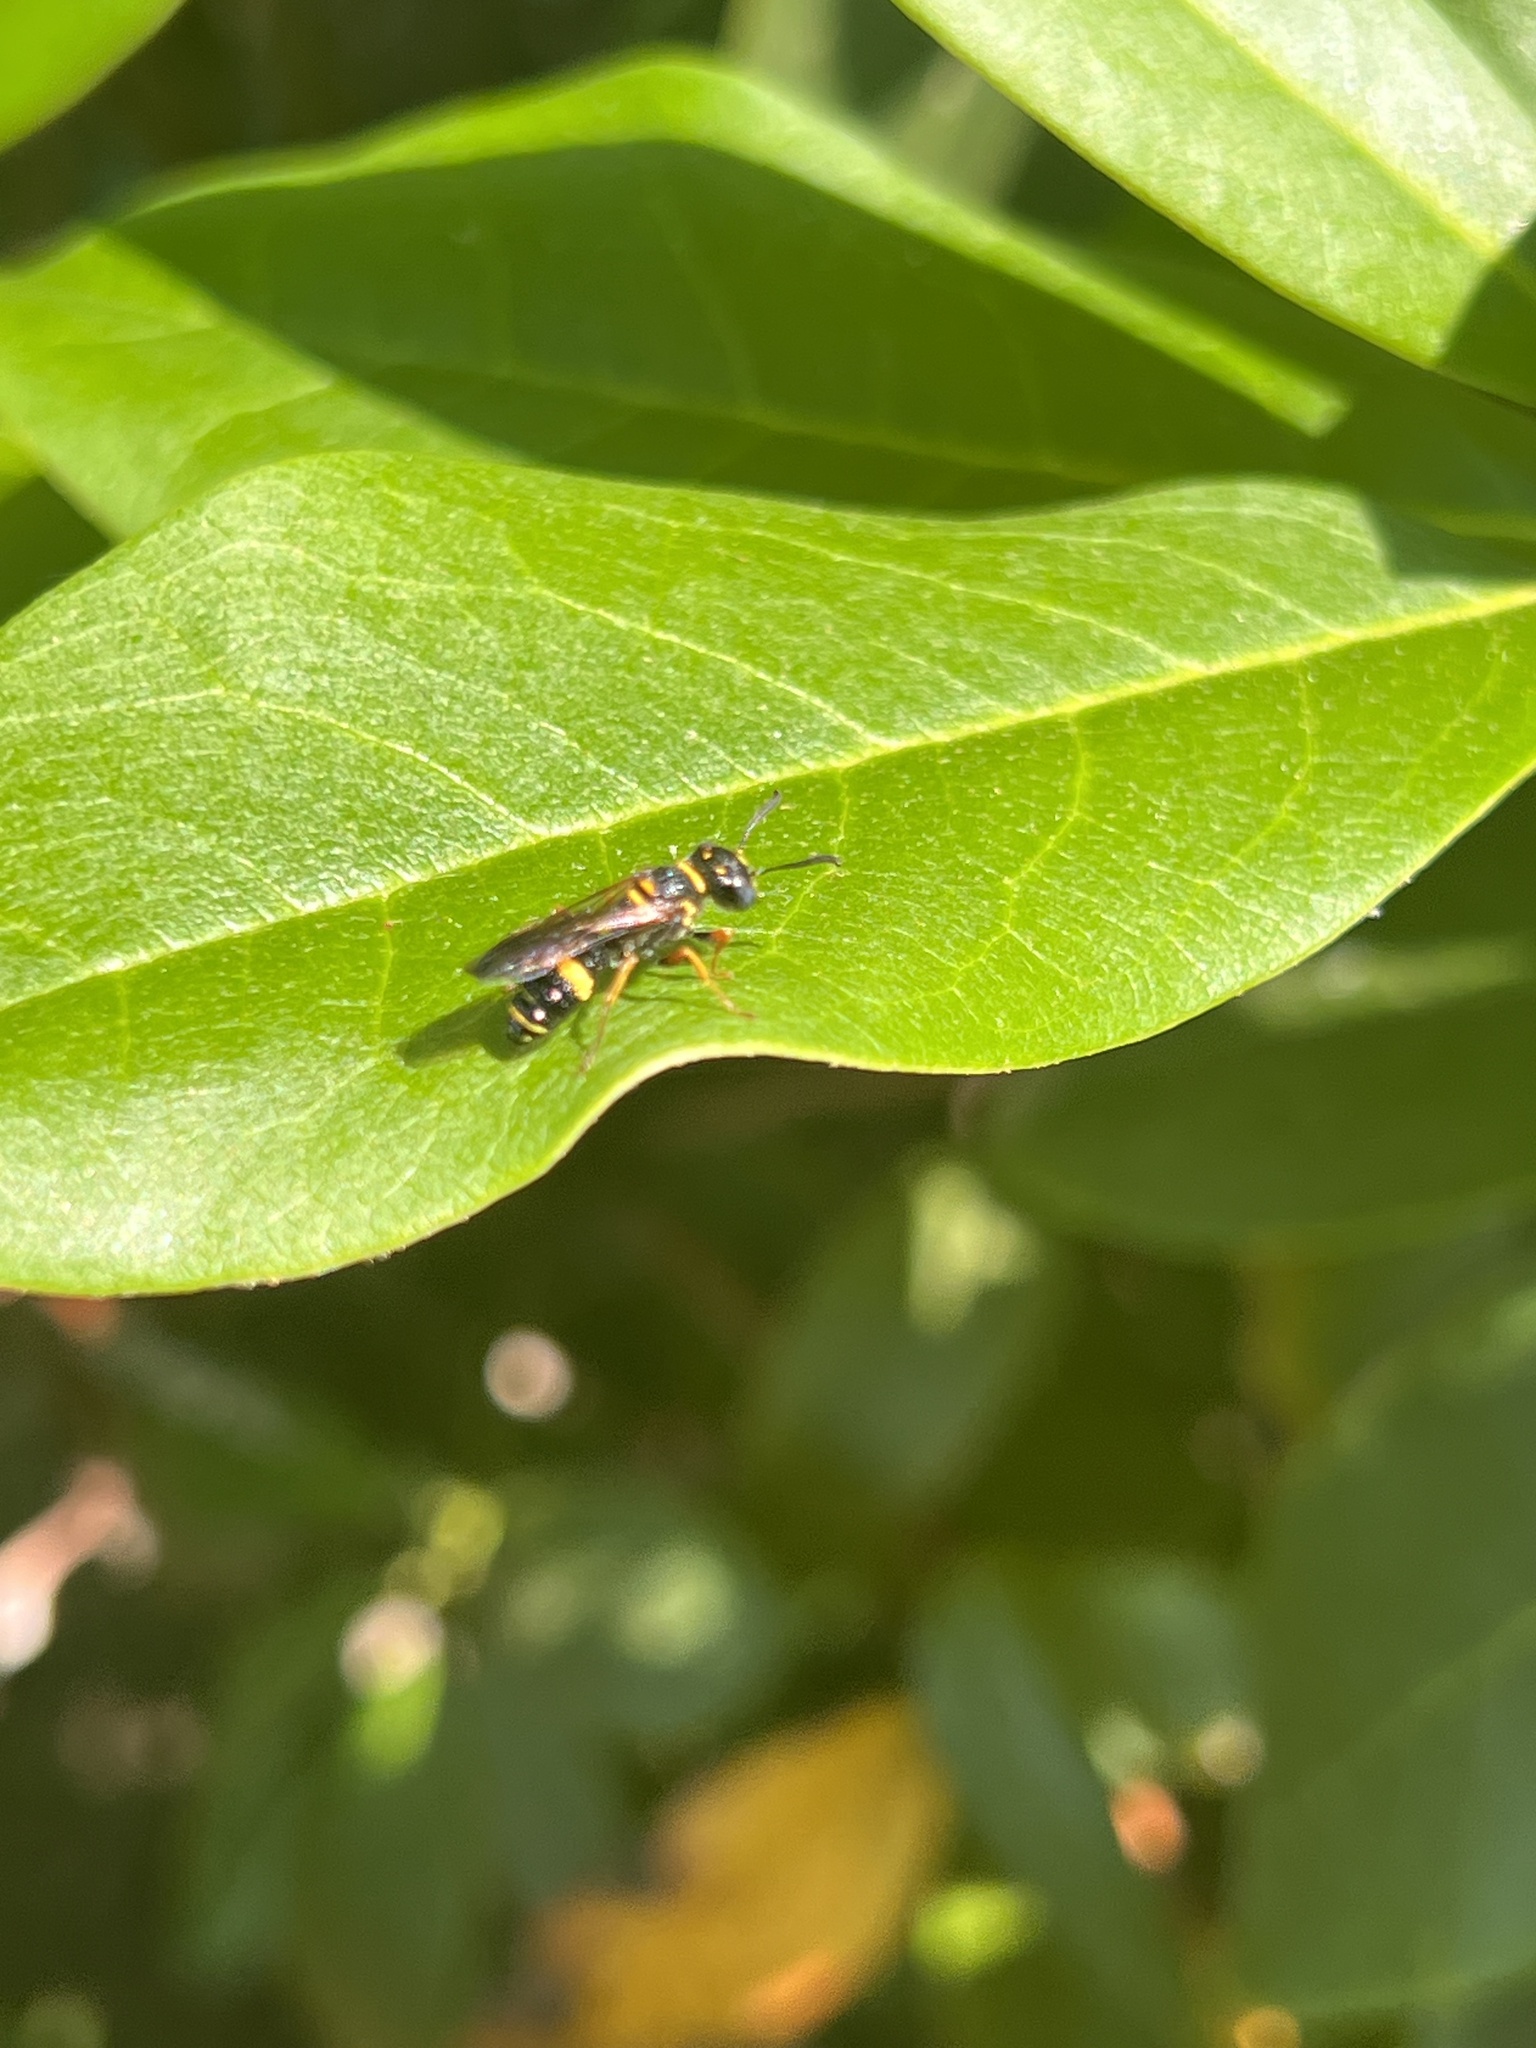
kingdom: Animalia
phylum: Arthropoda
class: Insecta
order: Hymenoptera
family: Crabronidae
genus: Philanthus
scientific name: Philanthus gibbosus
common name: Humped beewolf
